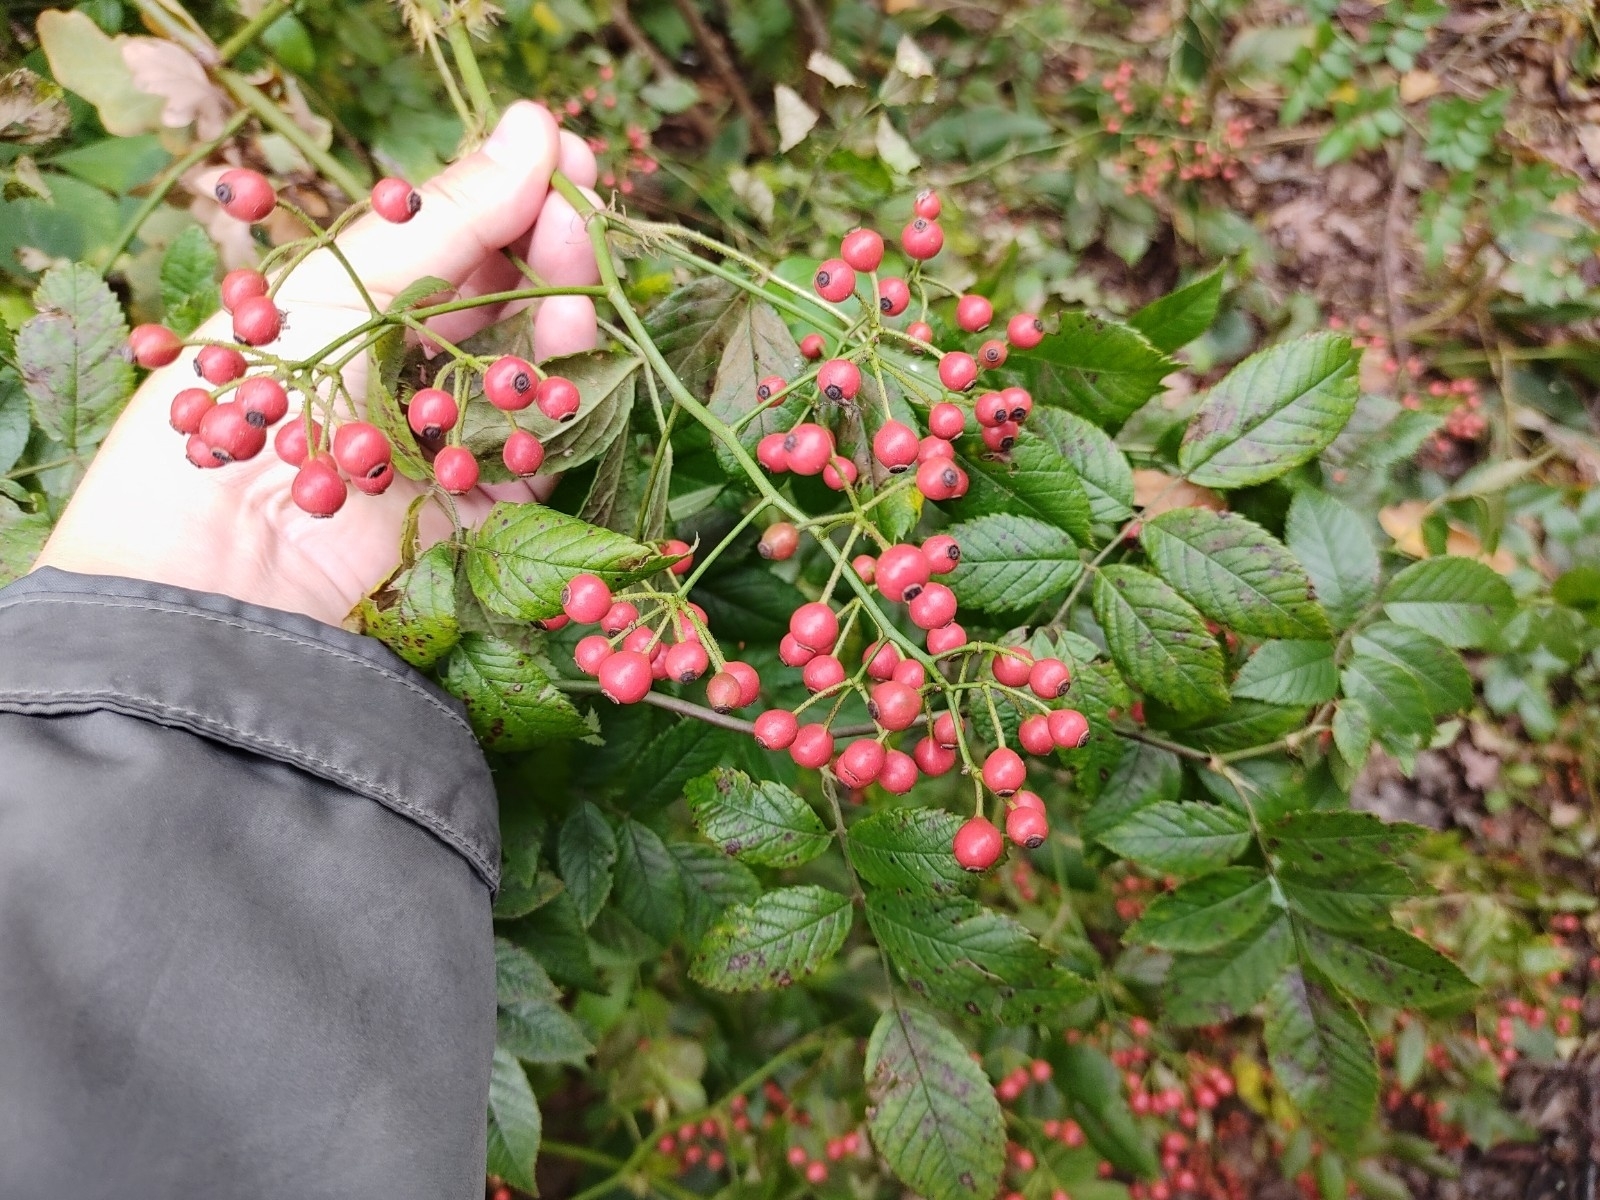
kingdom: Plantae
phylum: Tracheophyta
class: Magnoliopsida
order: Rosales
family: Rosaceae
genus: Rosa
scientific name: Rosa multiflora
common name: Multiflora rose
